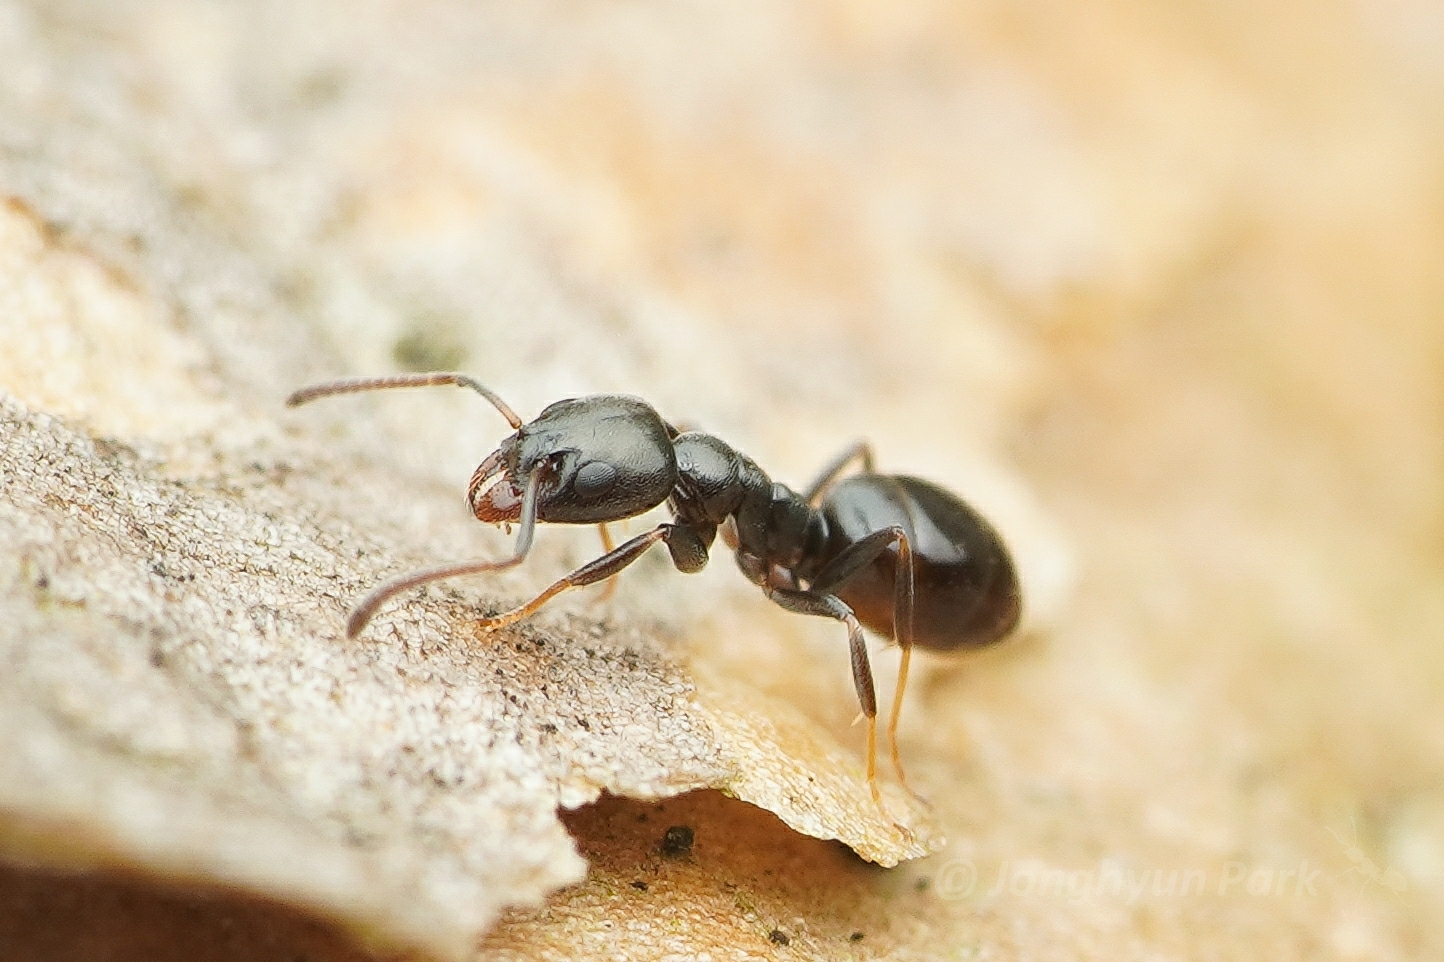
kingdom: Animalia
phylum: Arthropoda
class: Insecta
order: Hymenoptera
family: Formicidae
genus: Ochetellus
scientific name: Ochetellus glaber
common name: Ant
